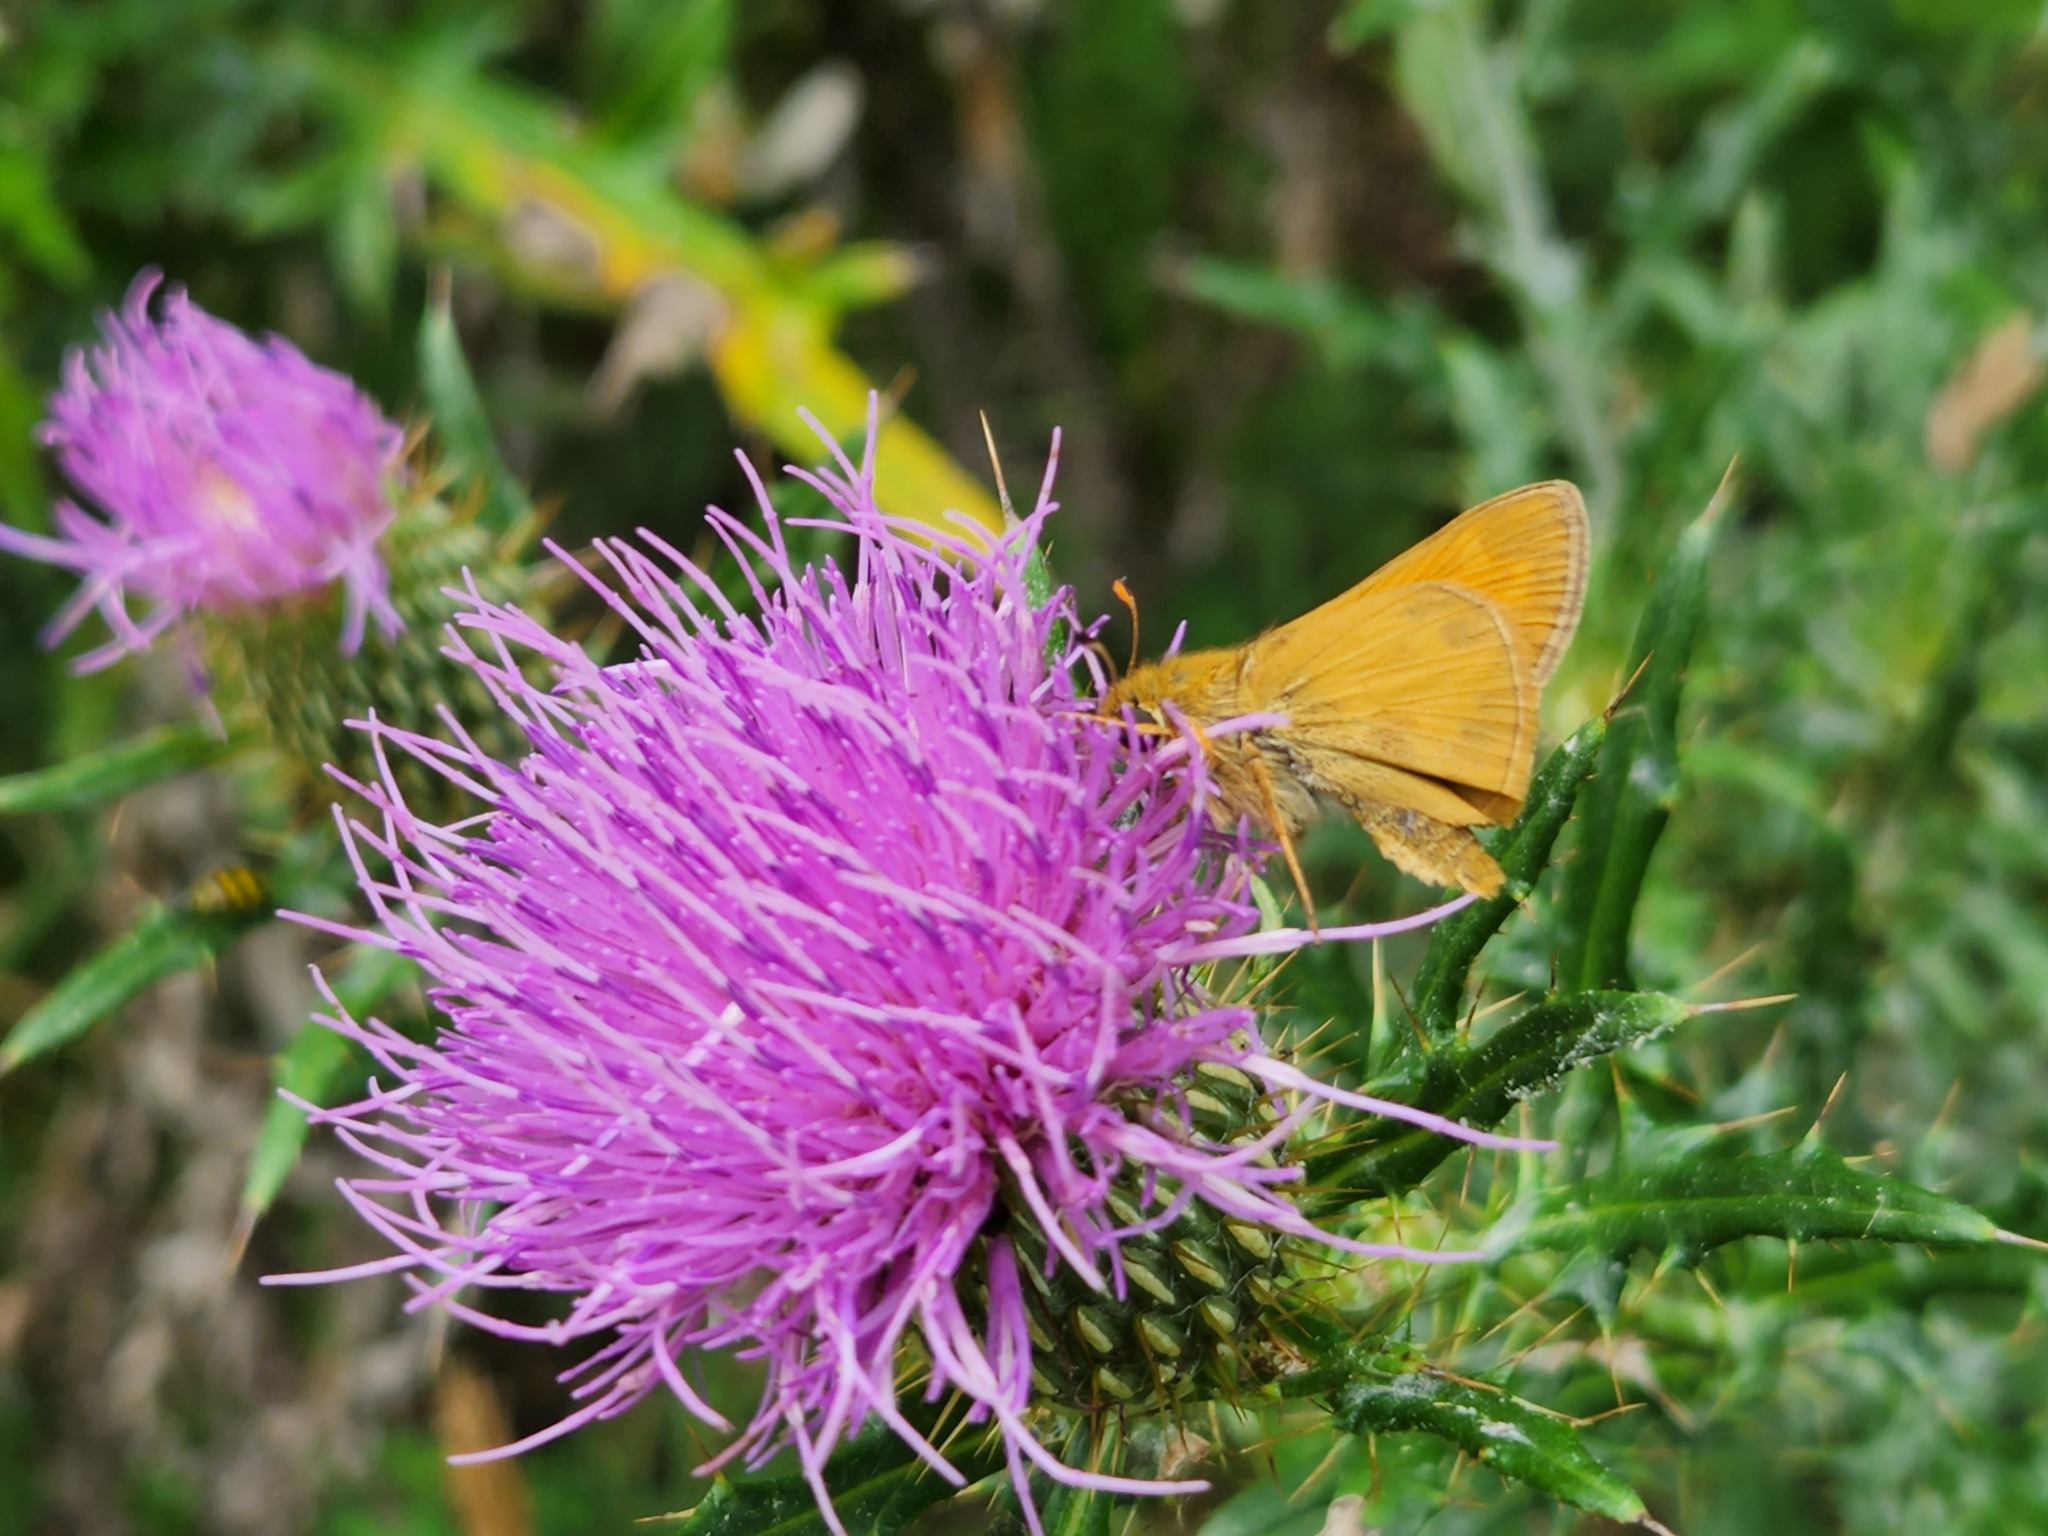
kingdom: Animalia
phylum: Arthropoda
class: Insecta
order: Lepidoptera
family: Hesperiidae
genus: Atalopedes
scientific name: Atalopedes
